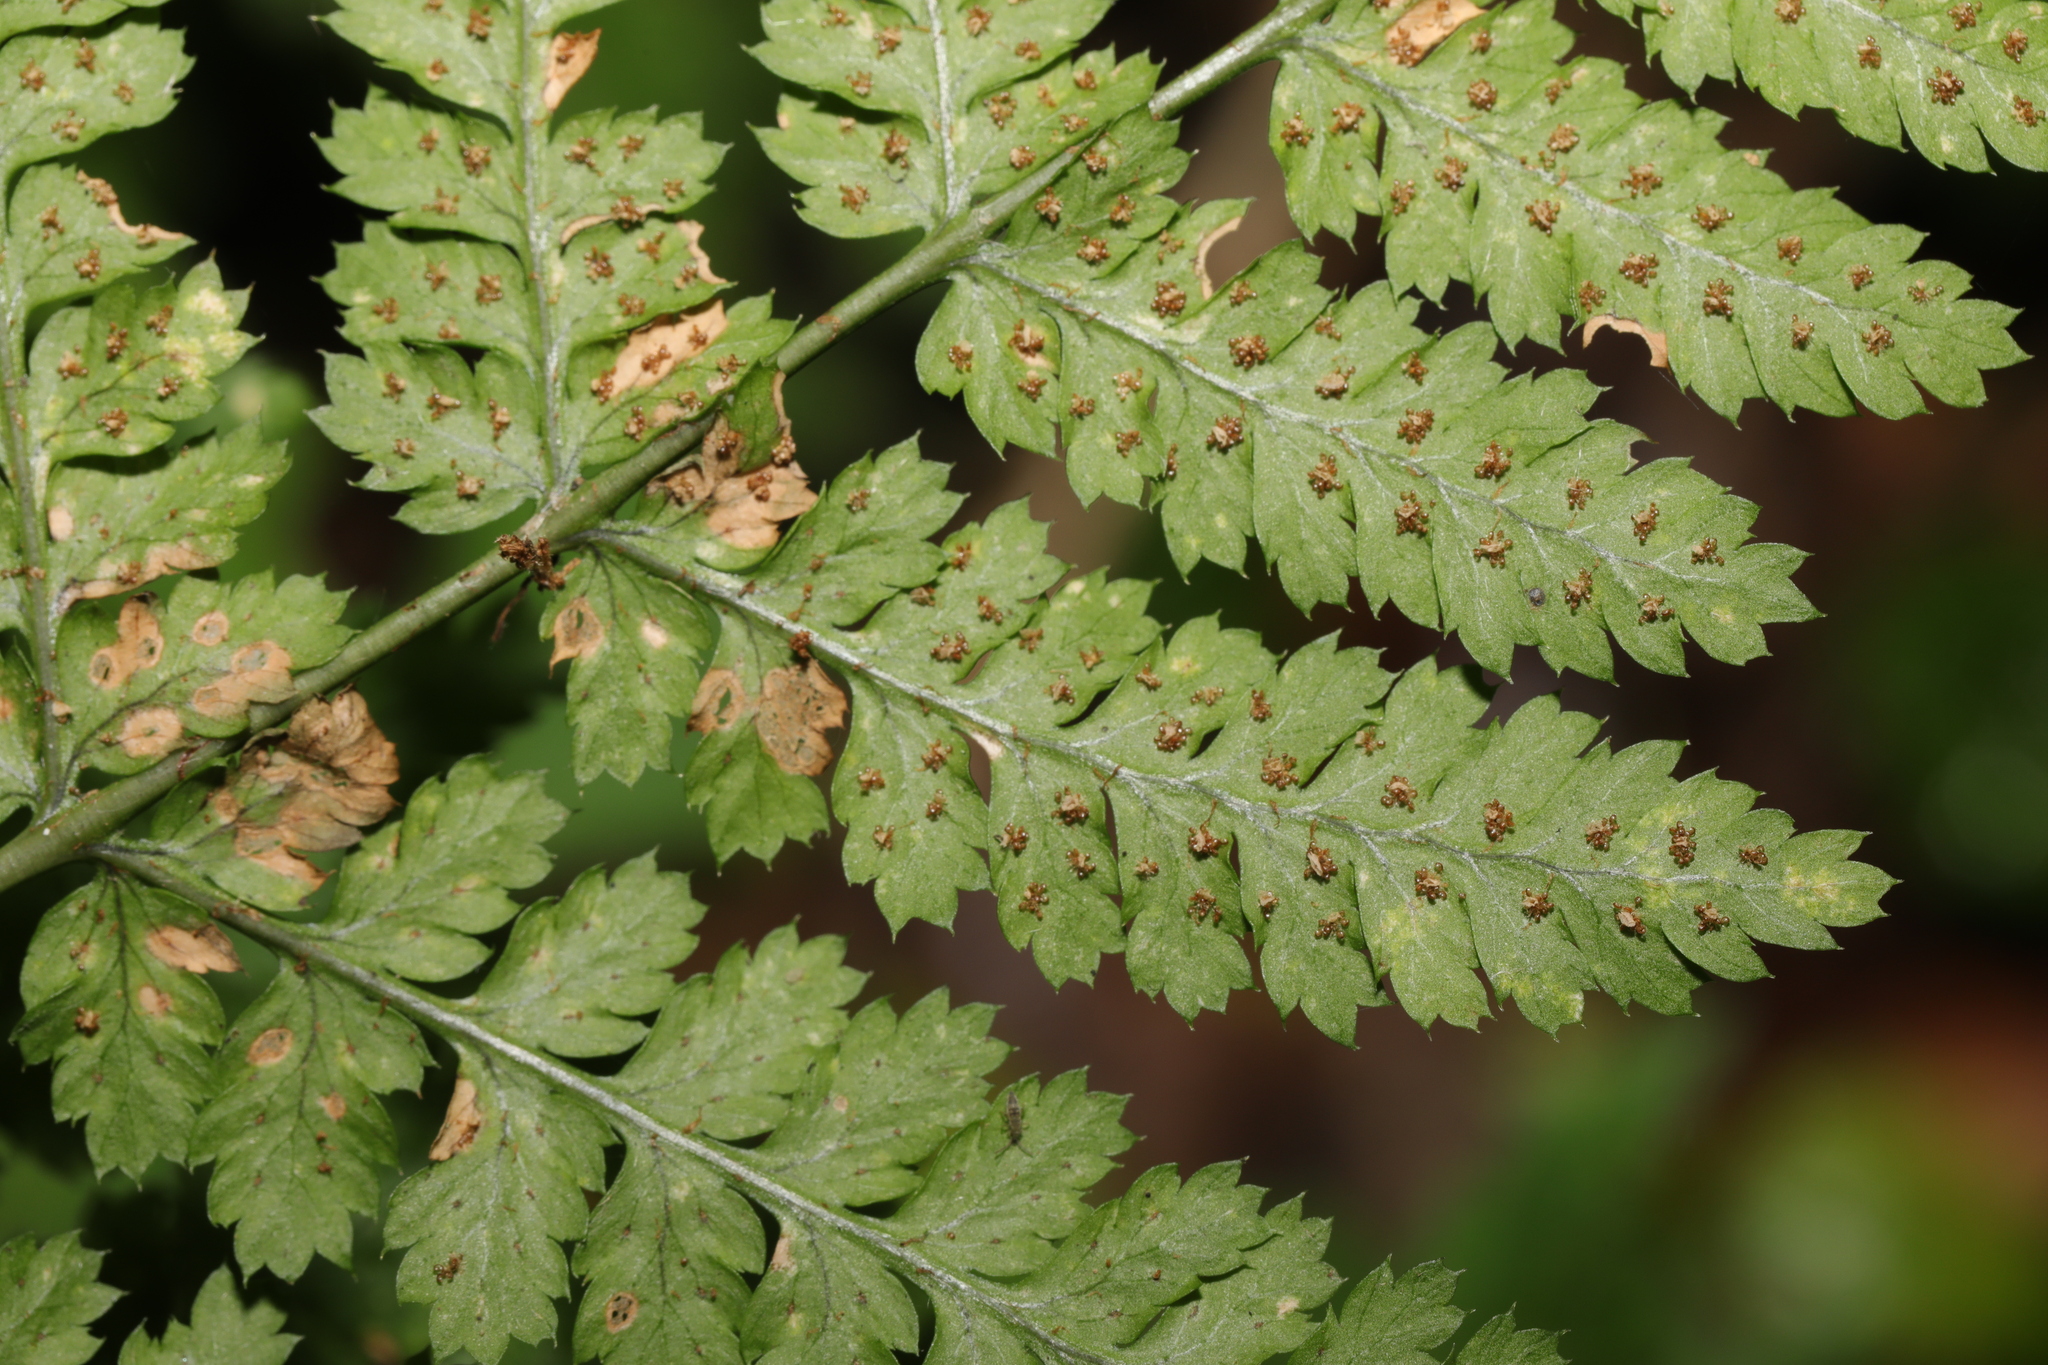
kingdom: Plantae
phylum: Tracheophyta
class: Polypodiopsida
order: Polypodiales
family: Dryopteridaceae
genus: Dryopteris
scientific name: Dryopteris dilatata
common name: Broad buckler-fern
